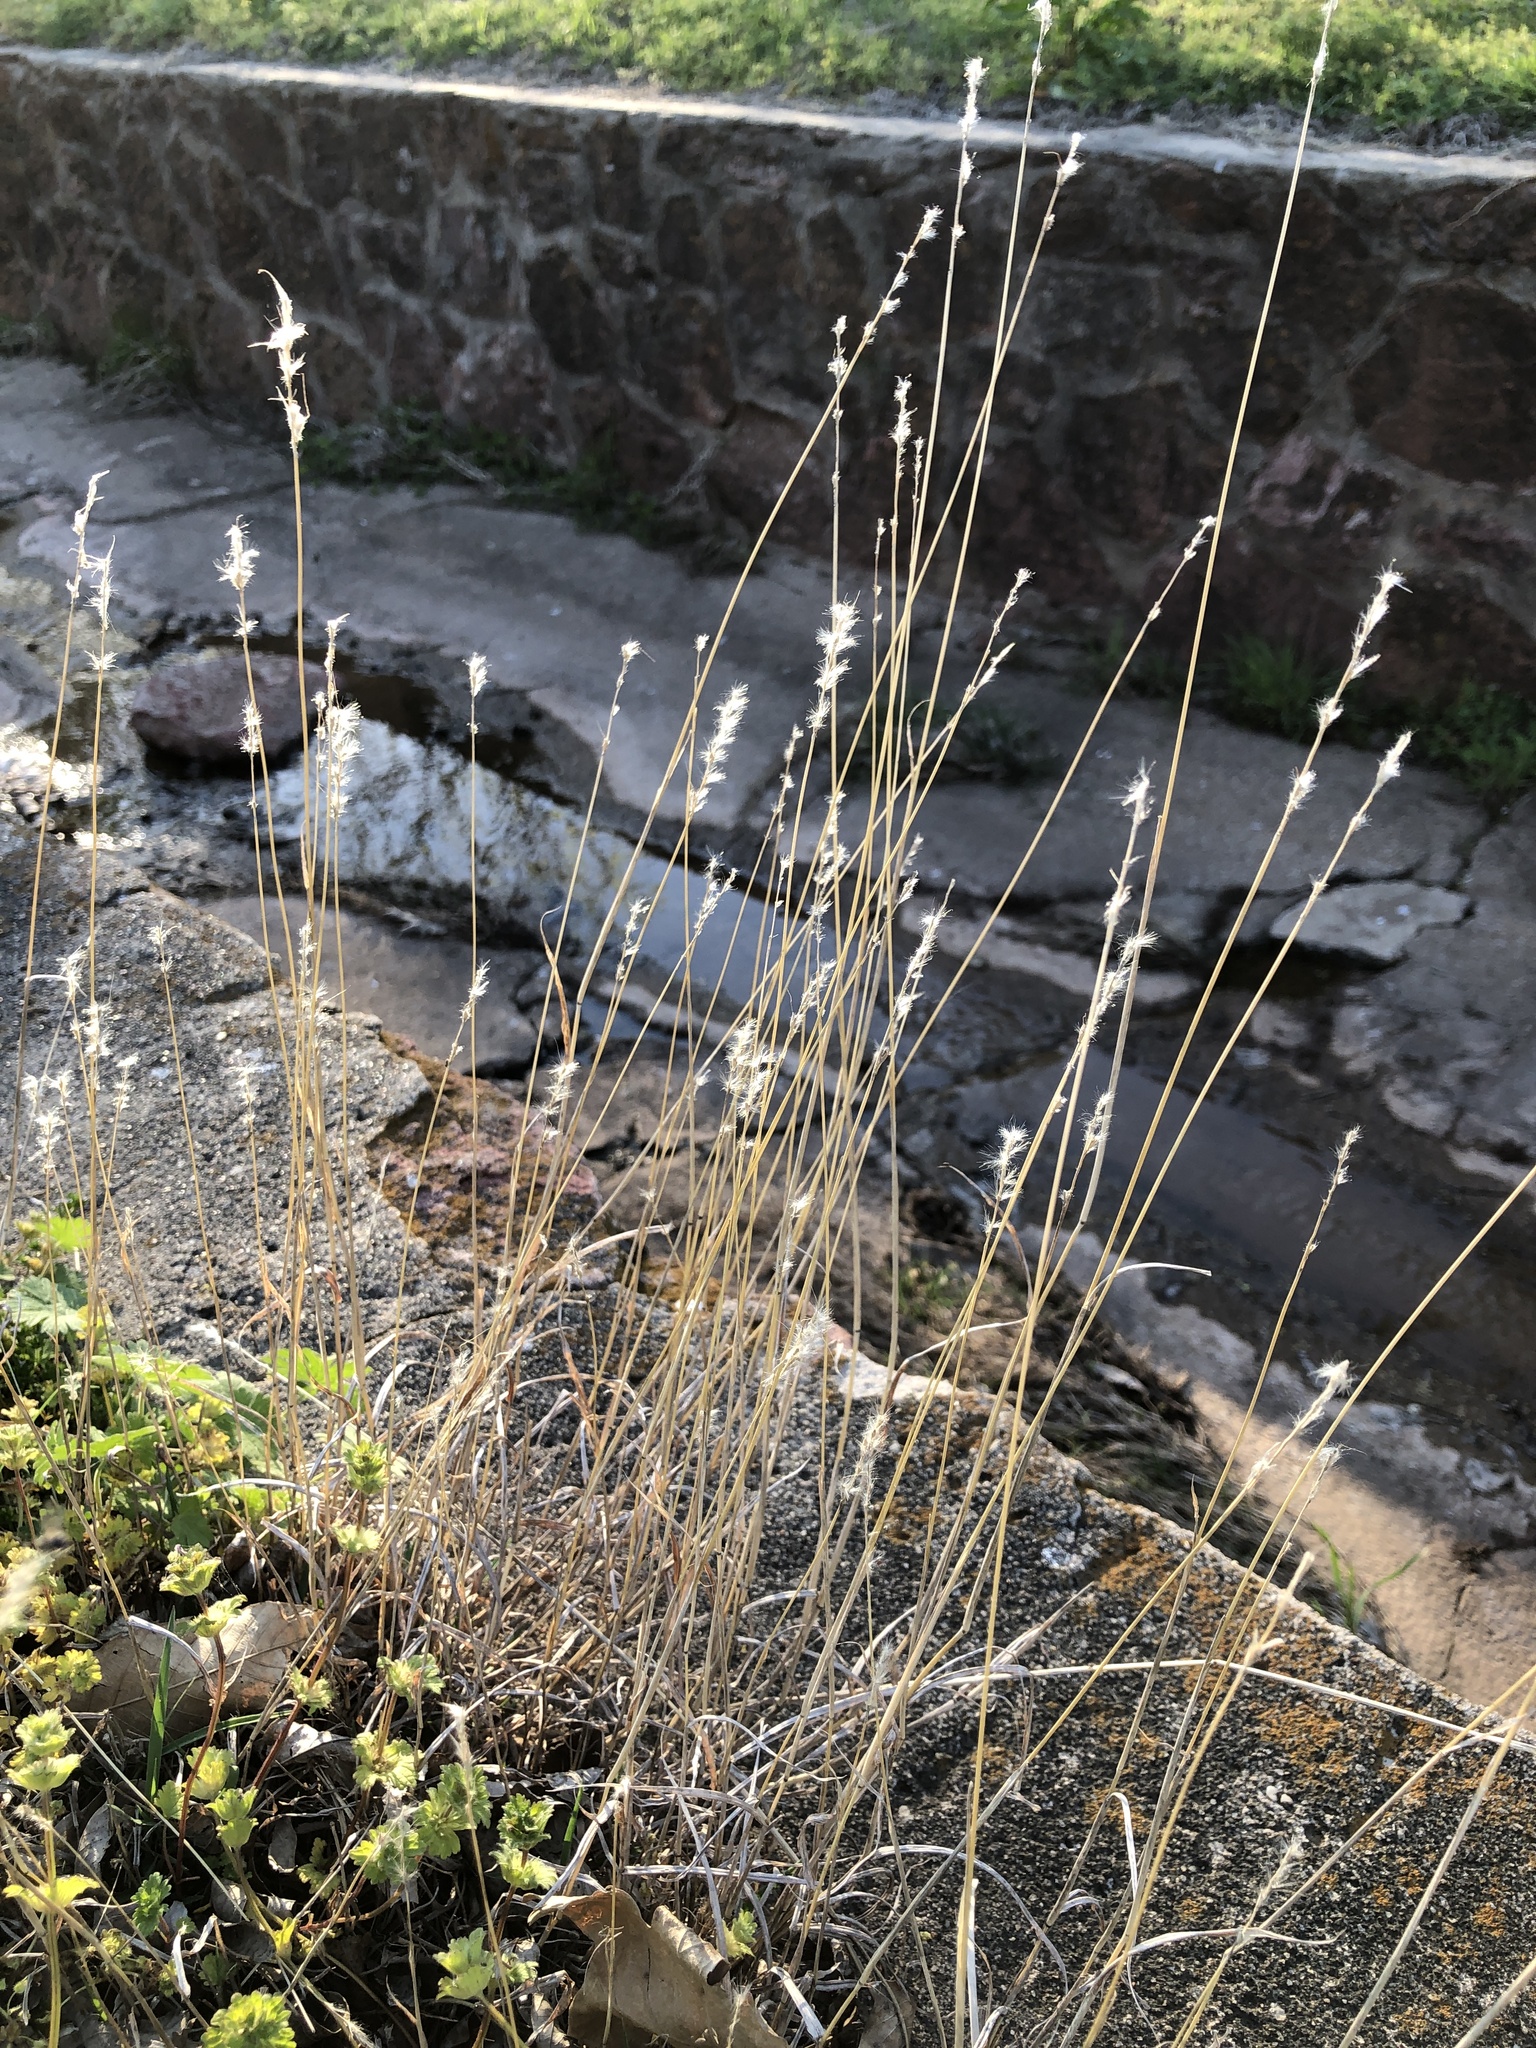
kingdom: Plantae
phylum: Tracheophyta
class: Liliopsida
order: Poales
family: Poaceae
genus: Bothriochloa
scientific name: Bothriochloa torreyana
